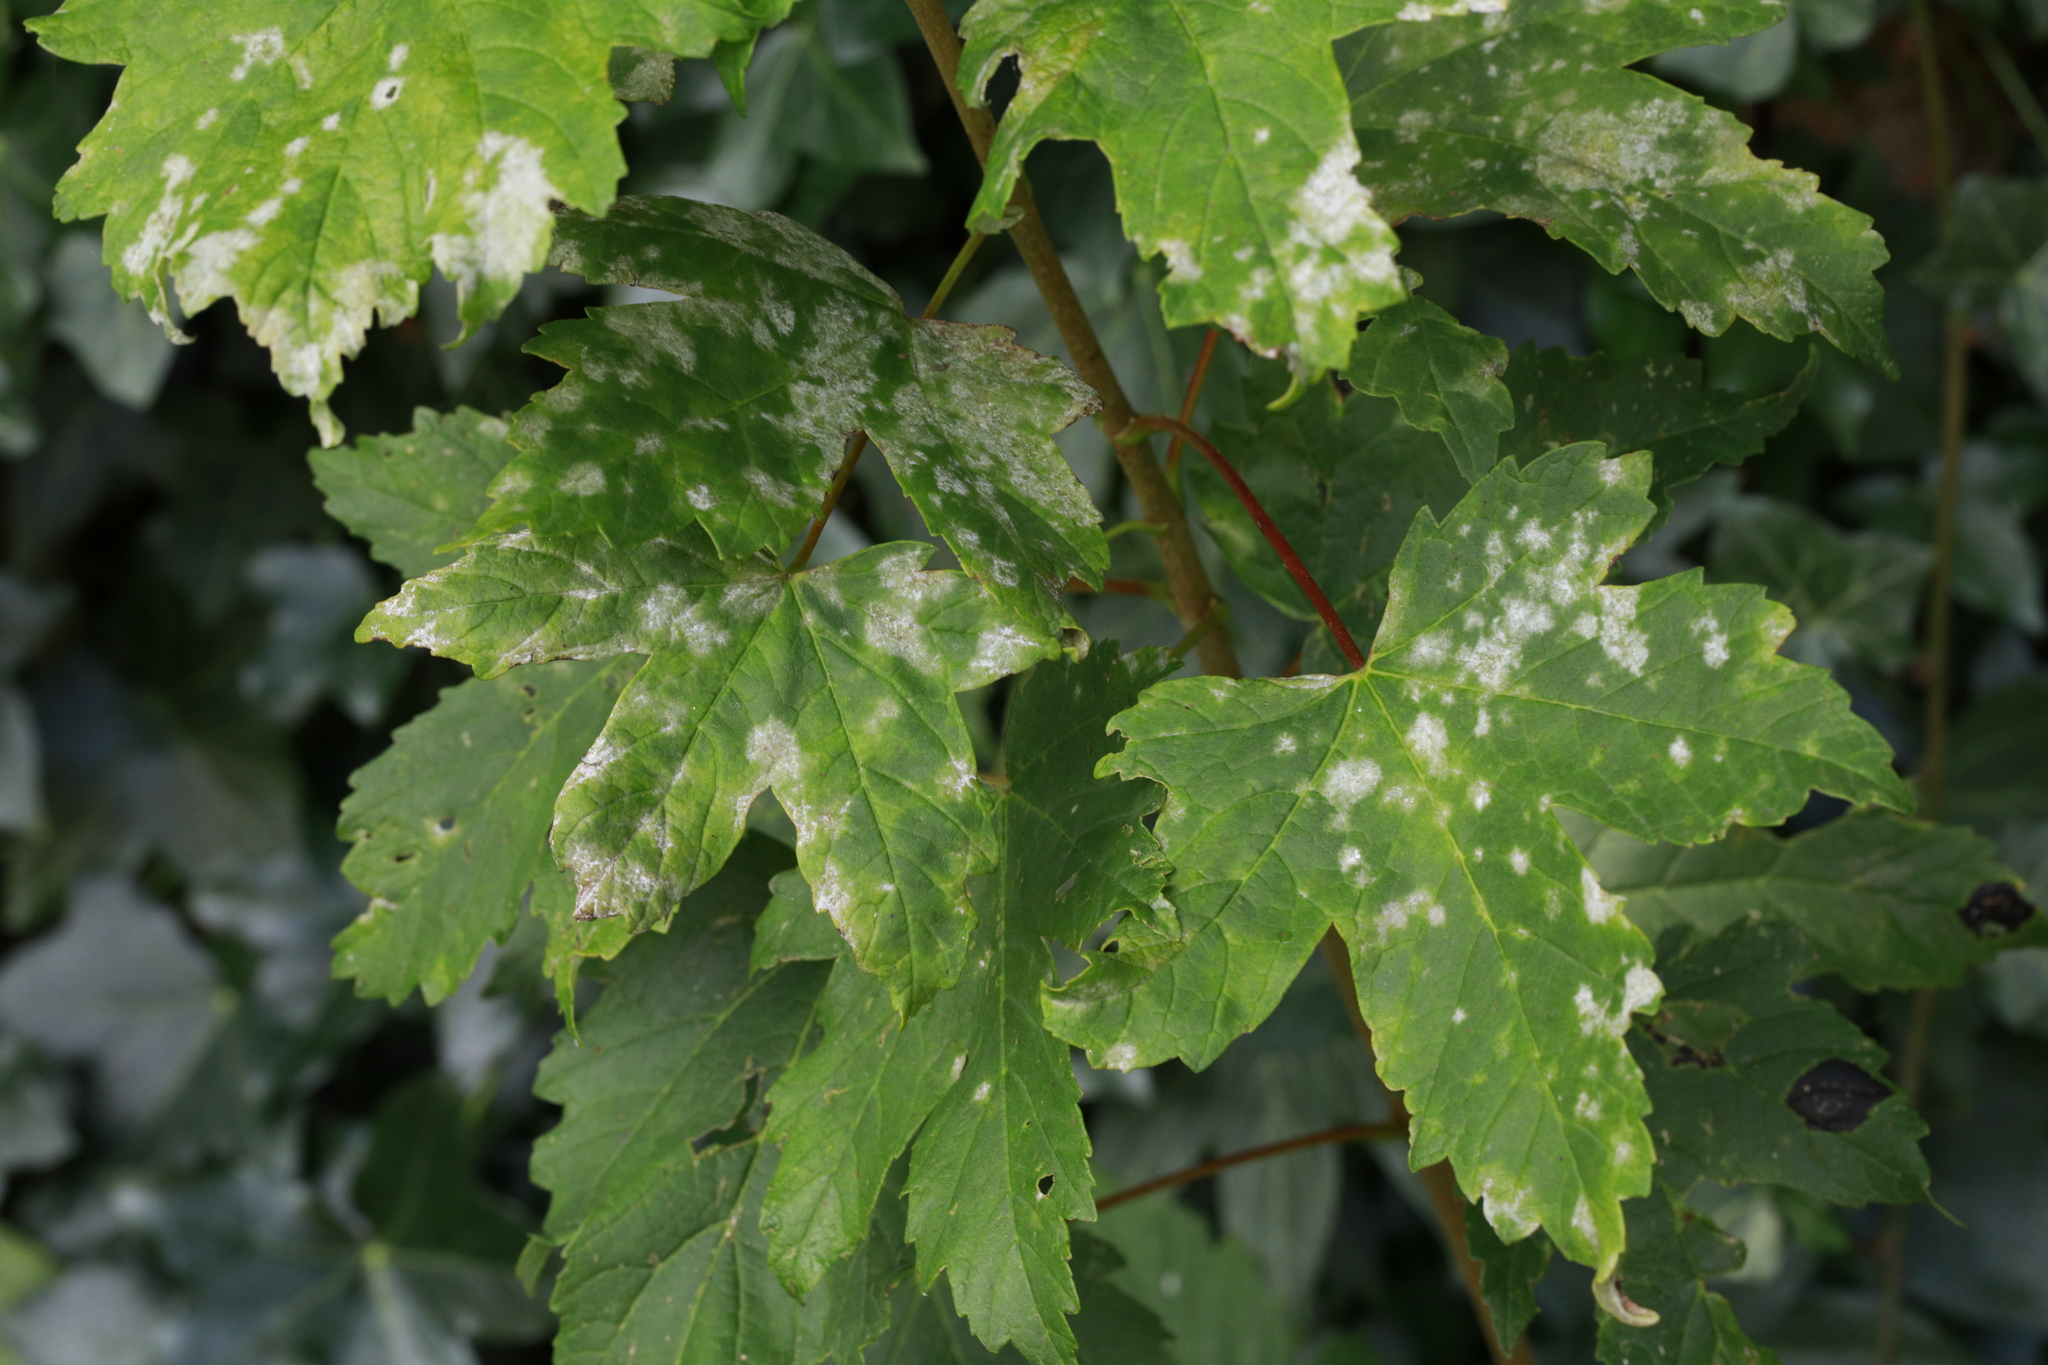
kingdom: Fungi
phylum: Ascomycota
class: Leotiomycetes
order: Helotiales
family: Erysiphaceae
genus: Sawadaea
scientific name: Sawadaea bicornis
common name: Maple mildew
